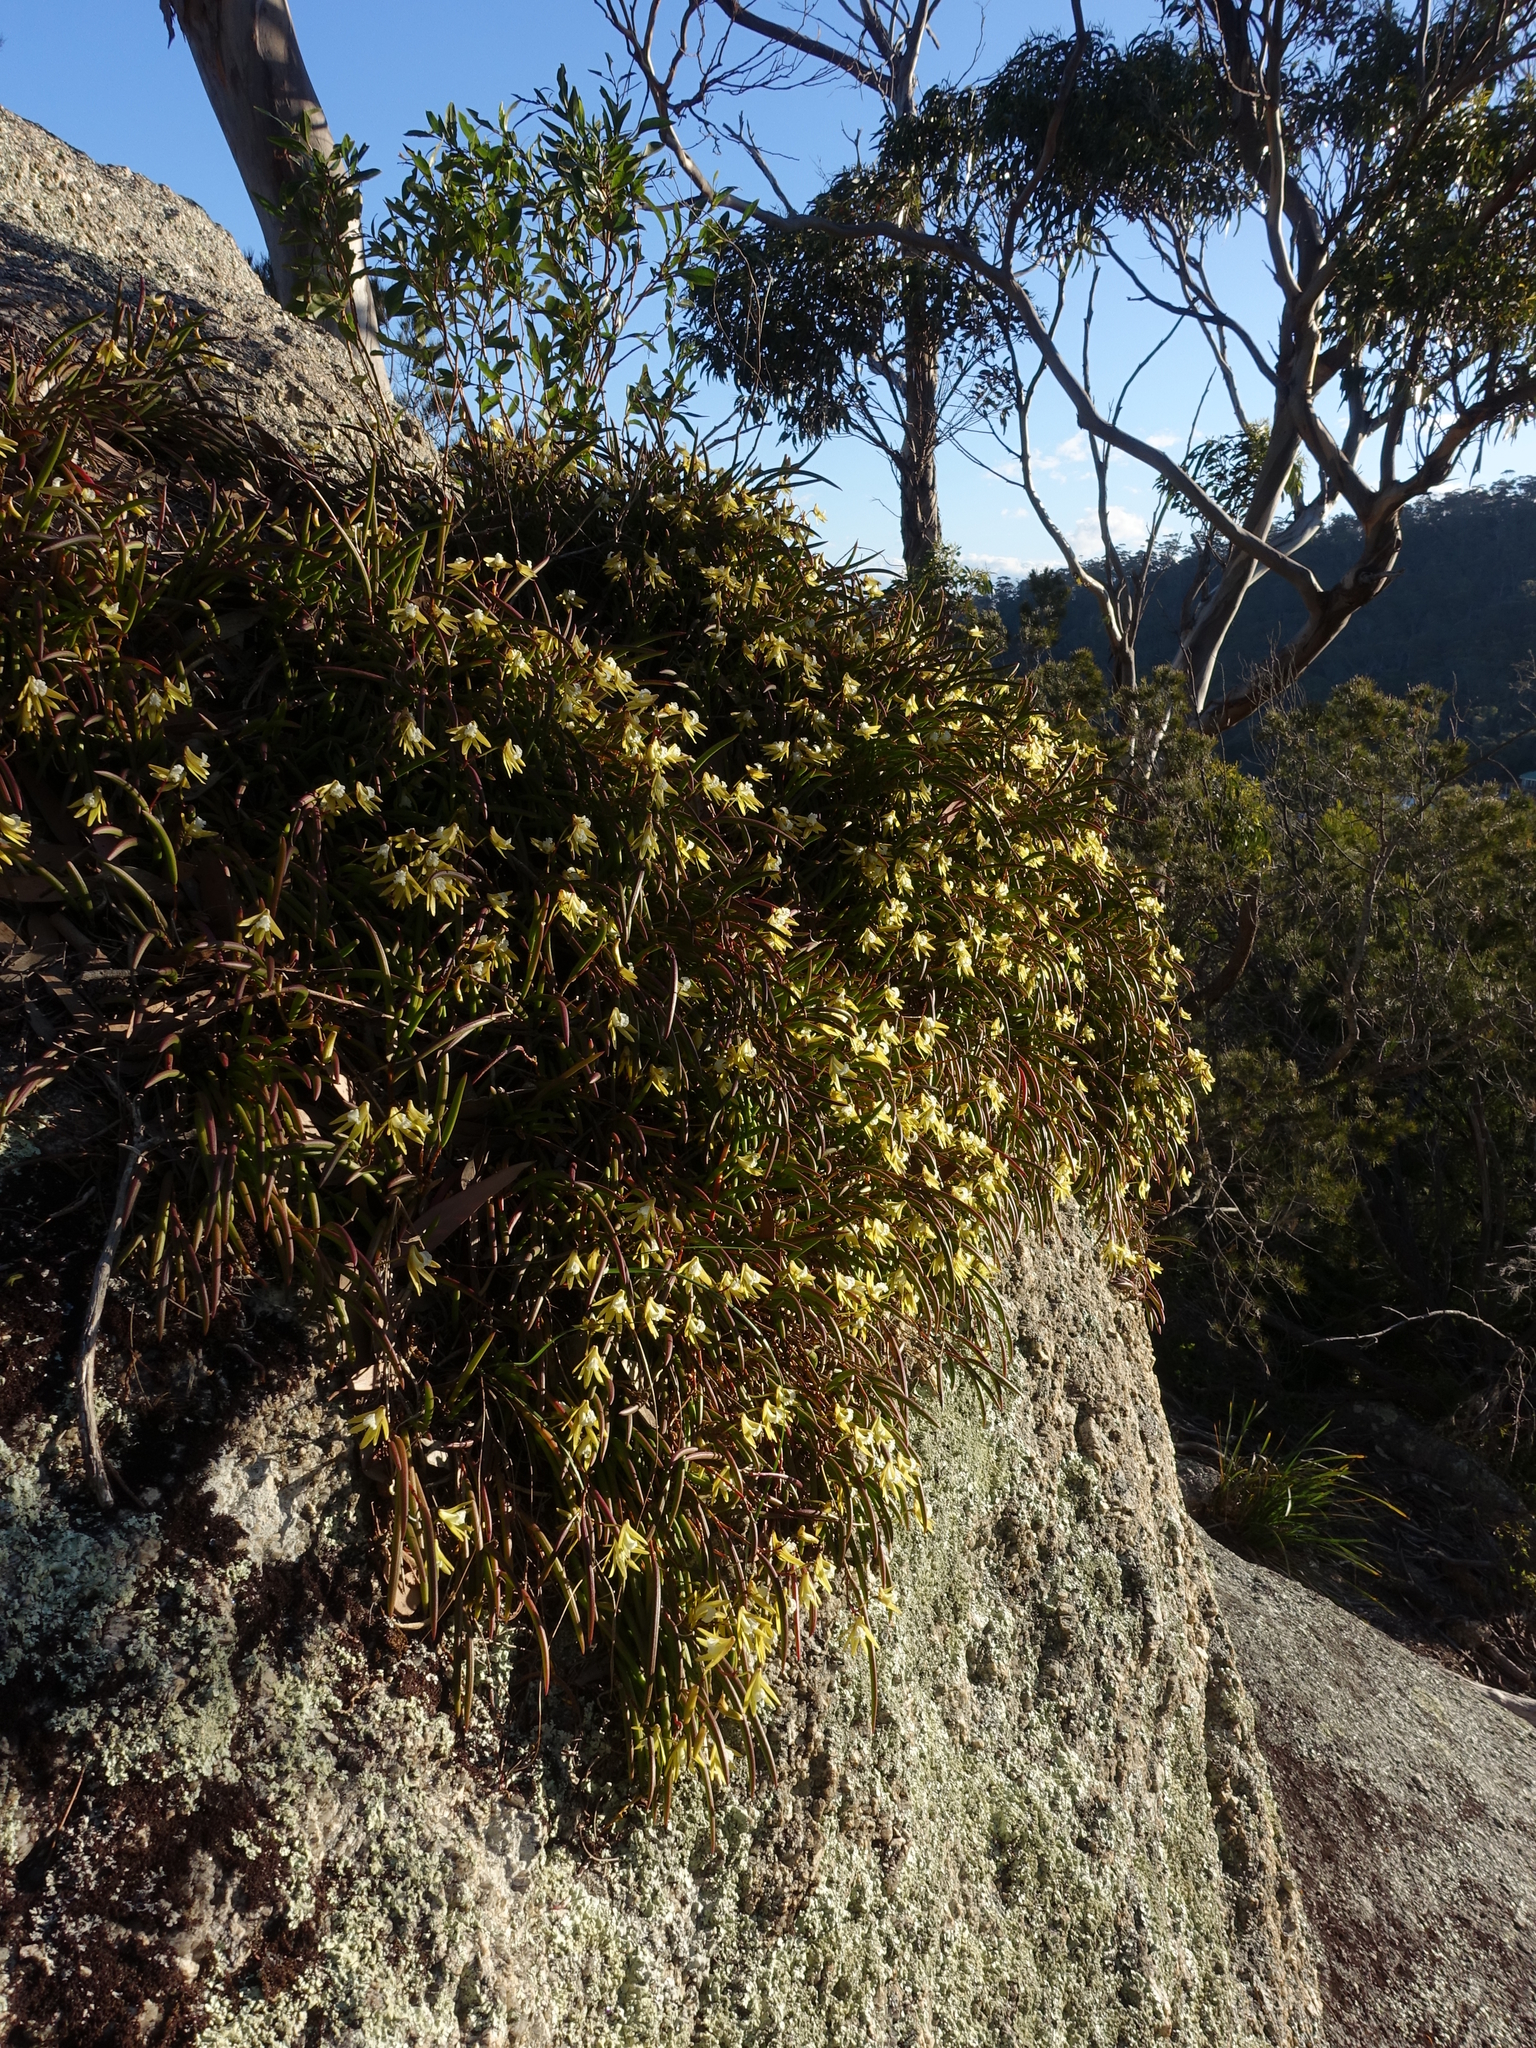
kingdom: Plantae
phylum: Tracheophyta
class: Liliopsida
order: Asparagales
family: Orchidaceae
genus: Dendrobium
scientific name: Dendrobium striolatum
